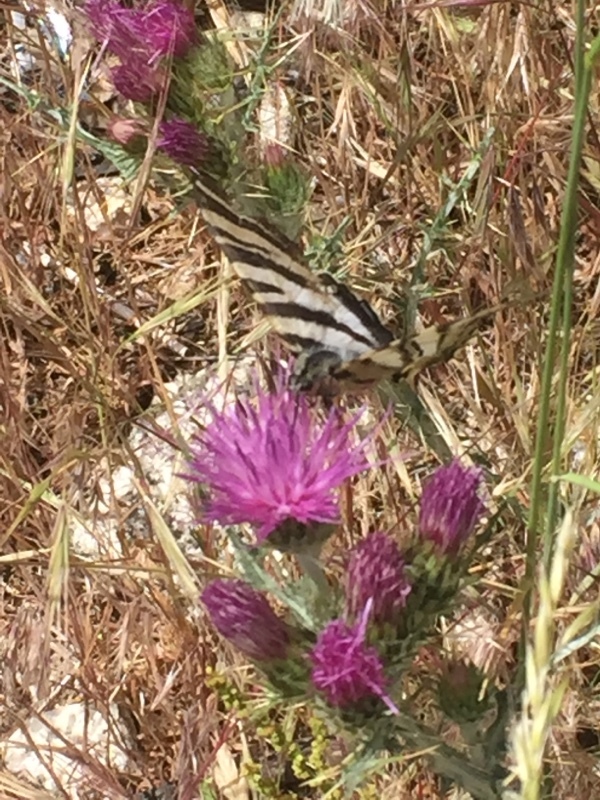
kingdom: Animalia
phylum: Arthropoda
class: Insecta
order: Lepidoptera
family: Papilionidae
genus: Iphiclides
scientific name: Iphiclides feisthamelii
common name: Iberian scarce swallowtail
